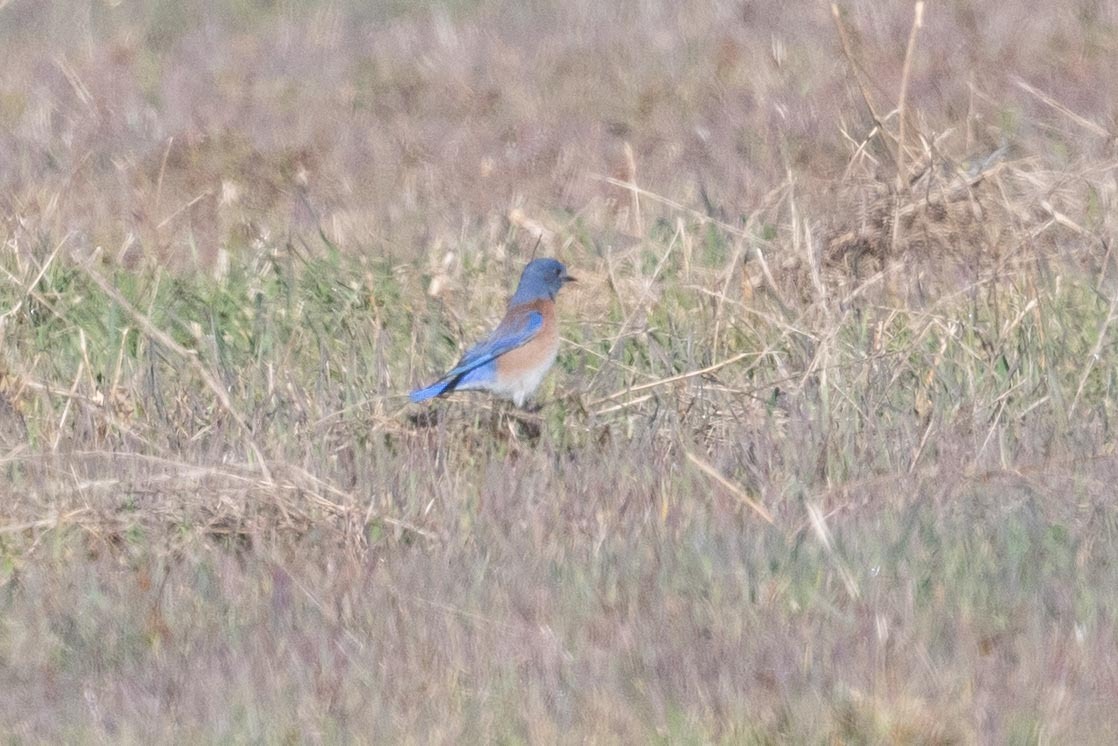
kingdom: Animalia
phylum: Chordata
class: Aves
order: Passeriformes
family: Turdidae
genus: Sialia
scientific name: Sialia mexicana
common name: Western bluebird
